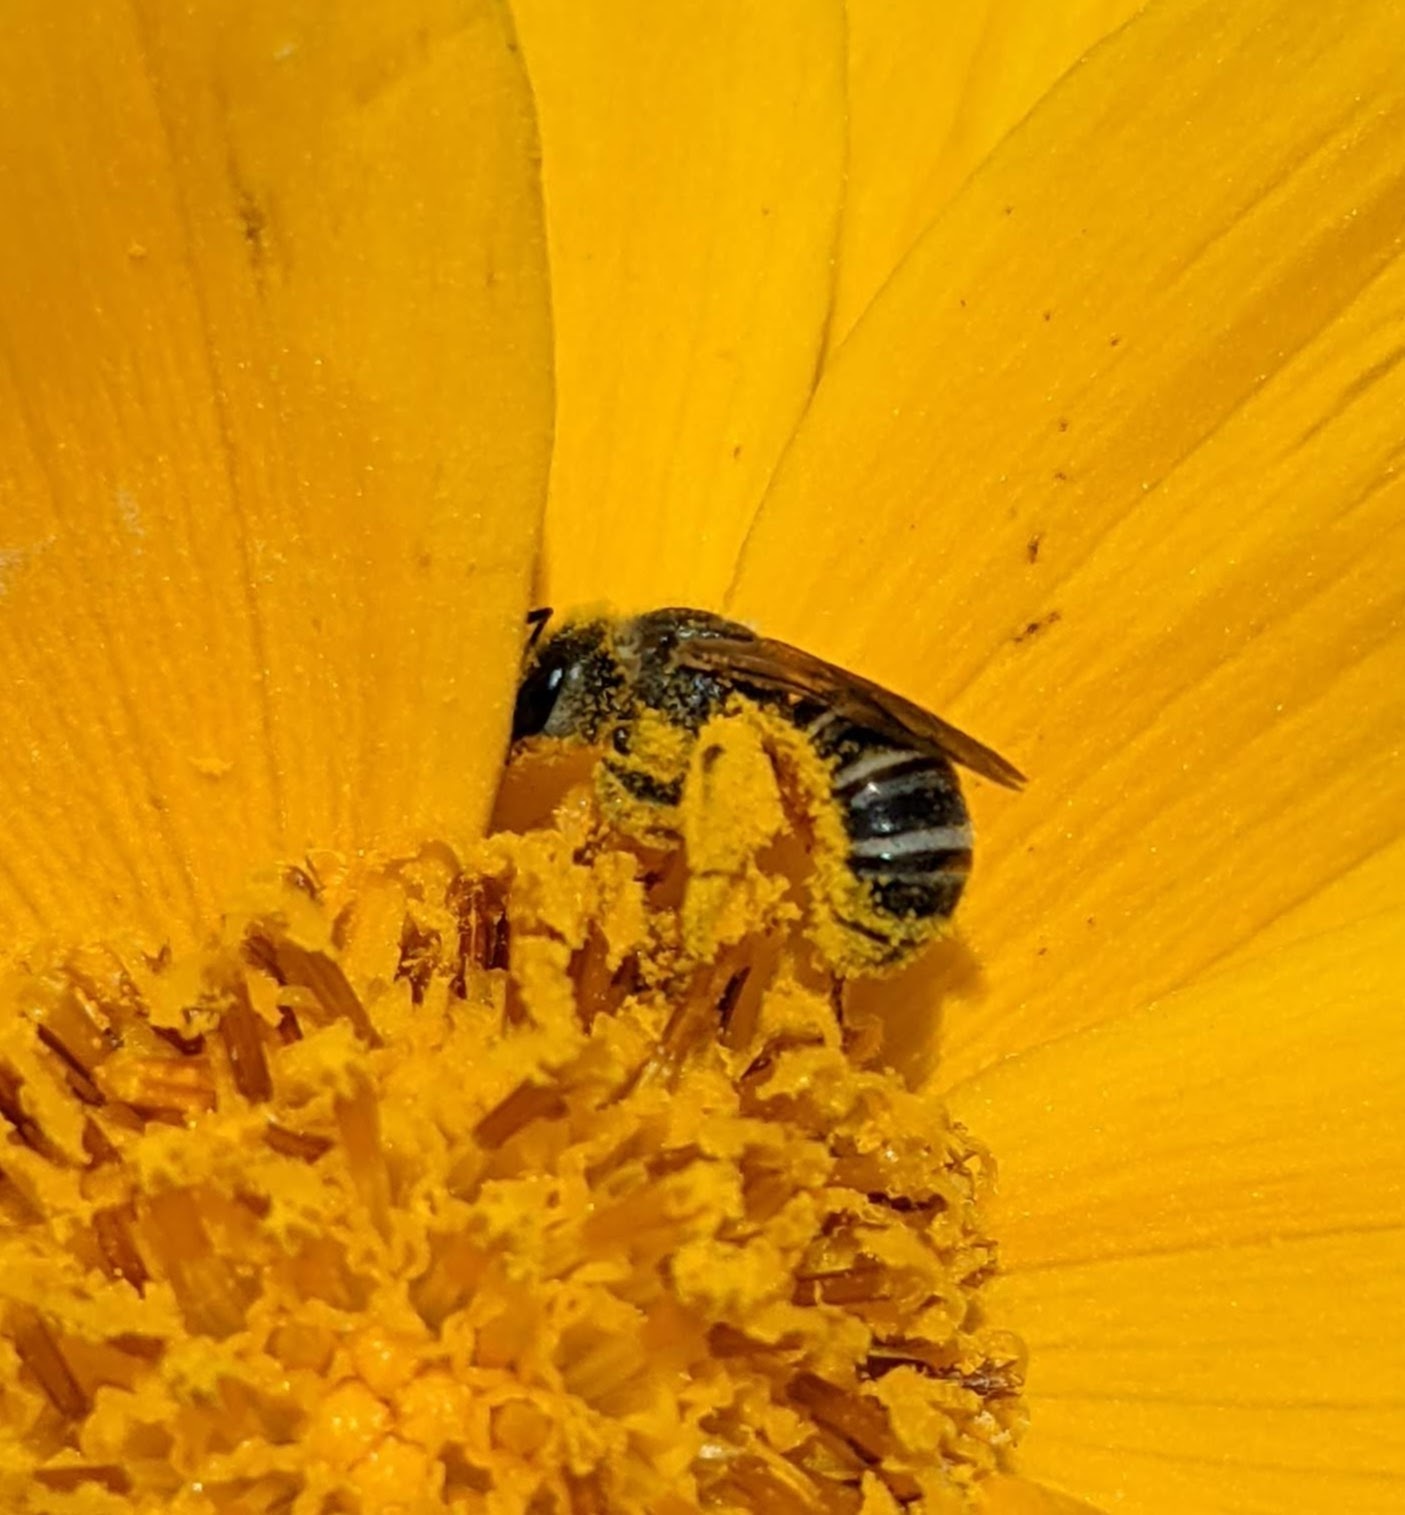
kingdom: Animalia
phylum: Arthropoda
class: Insecta
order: Hymenoptera
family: Halictidae
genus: Halictus
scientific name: Halictus ligatus
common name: Ligated furrow bee
